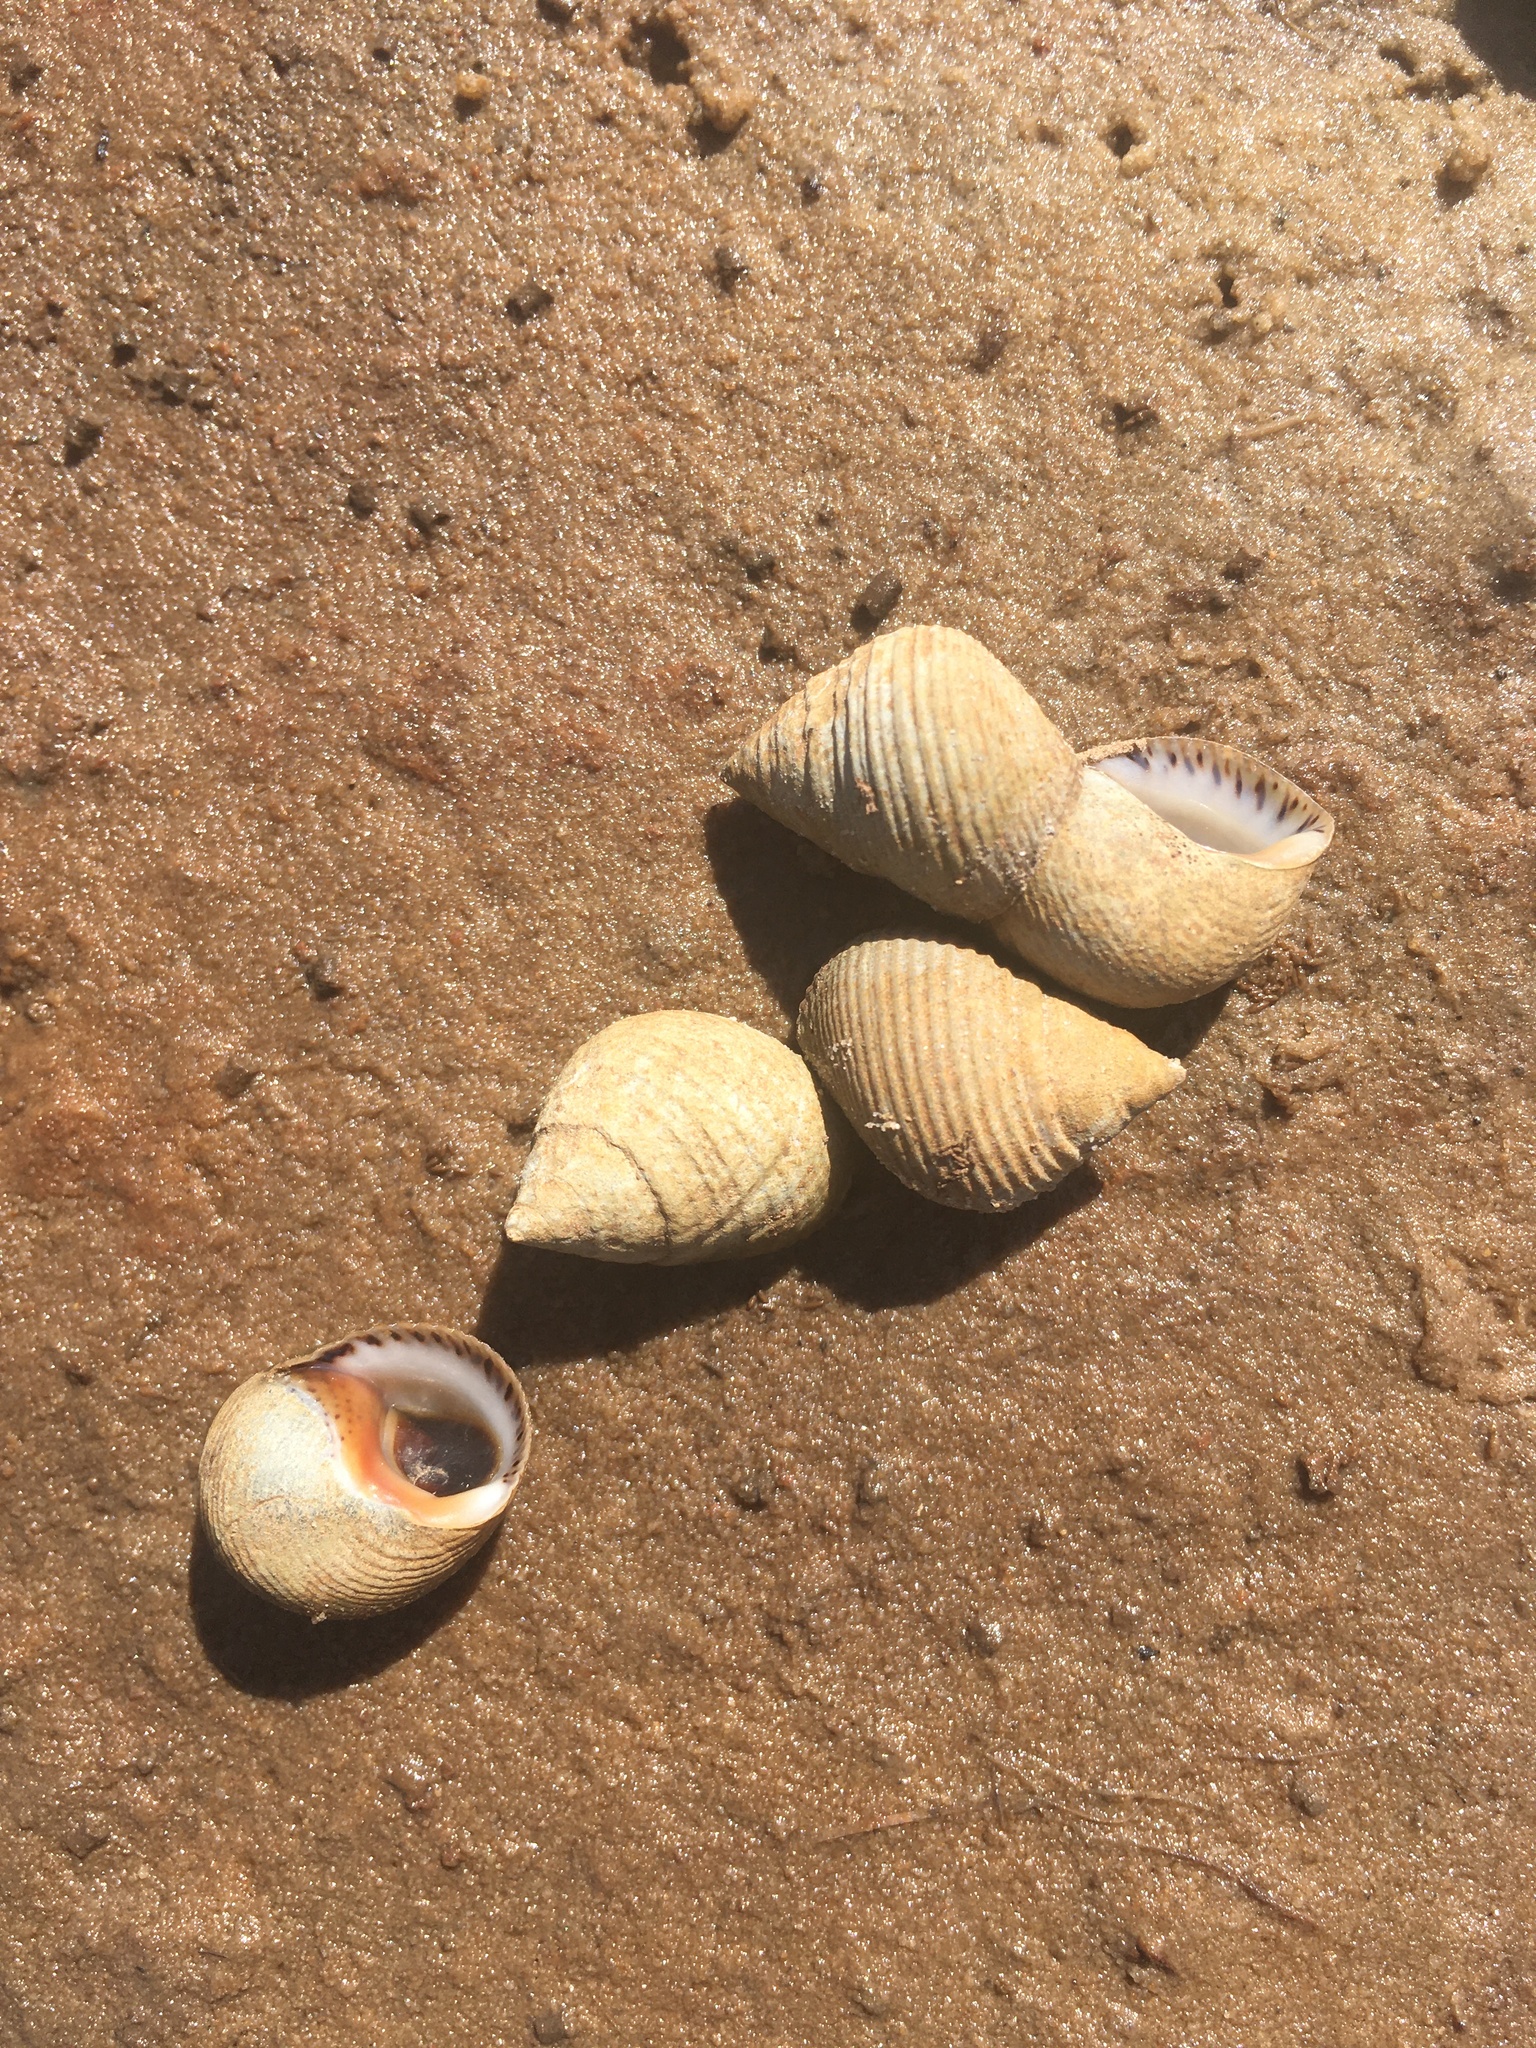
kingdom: Animalia
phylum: Mollusca
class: Gastropoda
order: Littorinimorpha
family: Littorinidae
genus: Littoraria
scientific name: Littoraria irrorata
